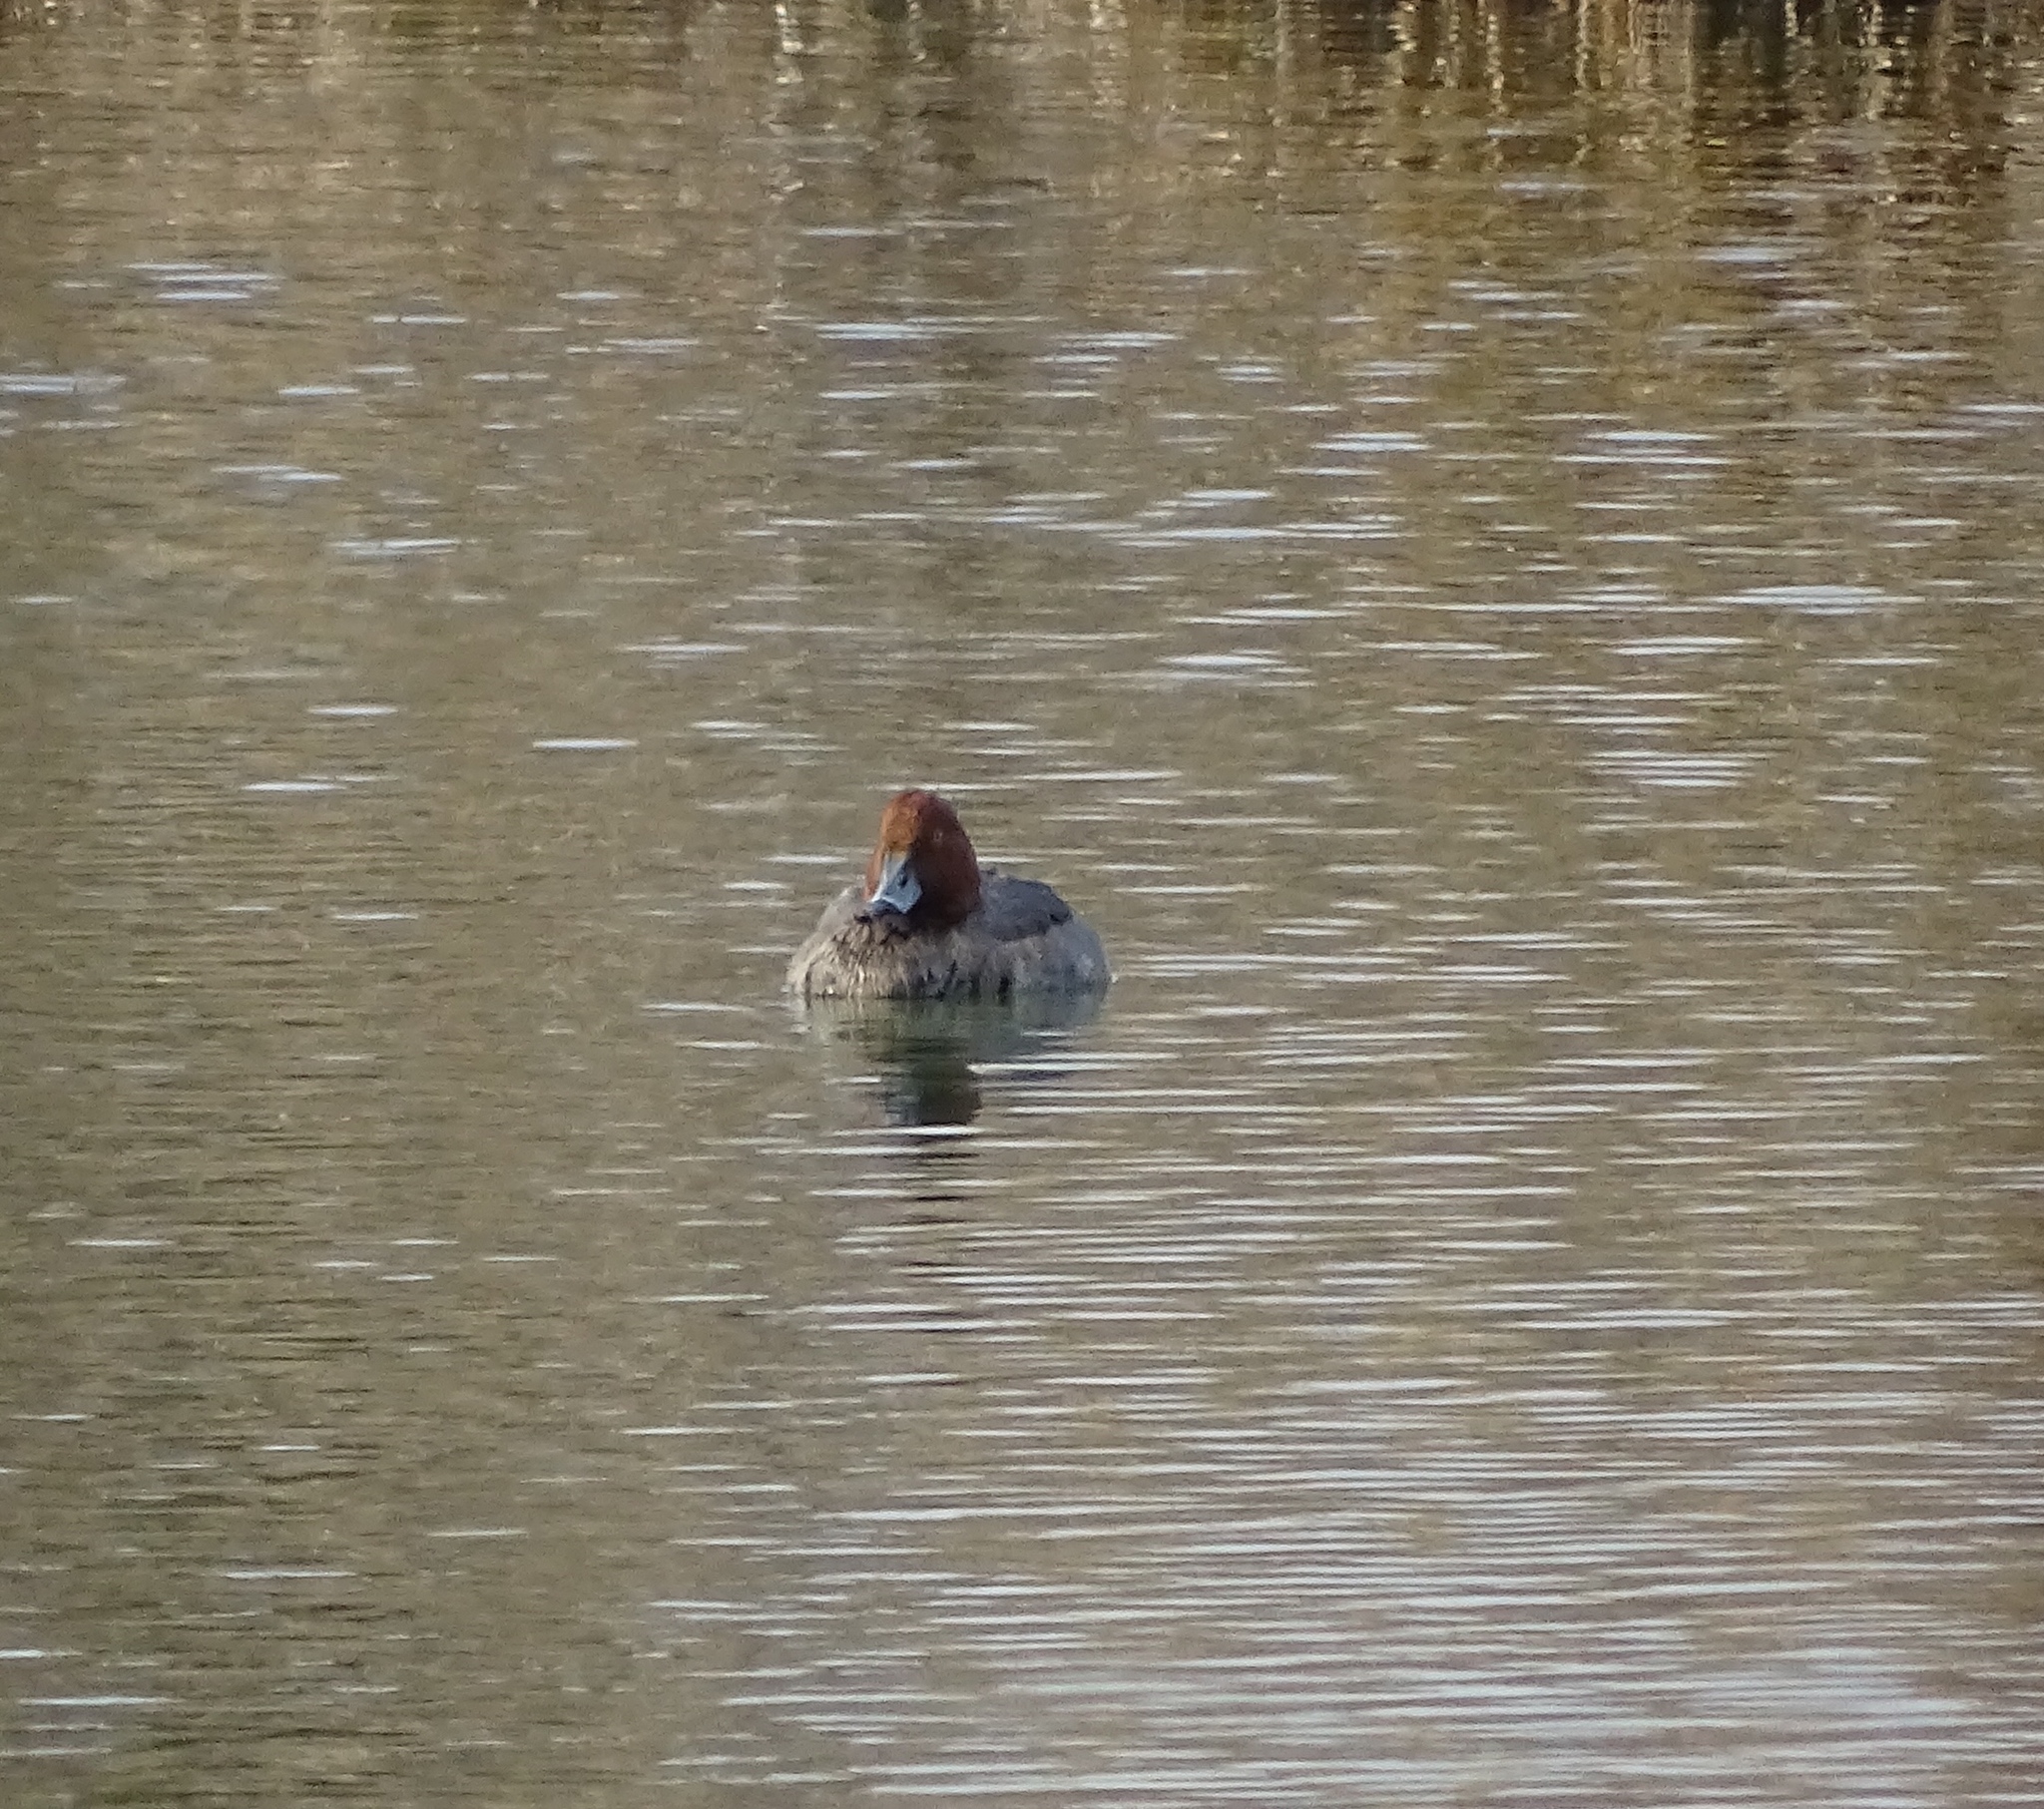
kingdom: Animalia
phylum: Chordata
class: Aves
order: Anseriformes
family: Anatidae
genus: Aythya
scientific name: Aythya americana
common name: Redhead
